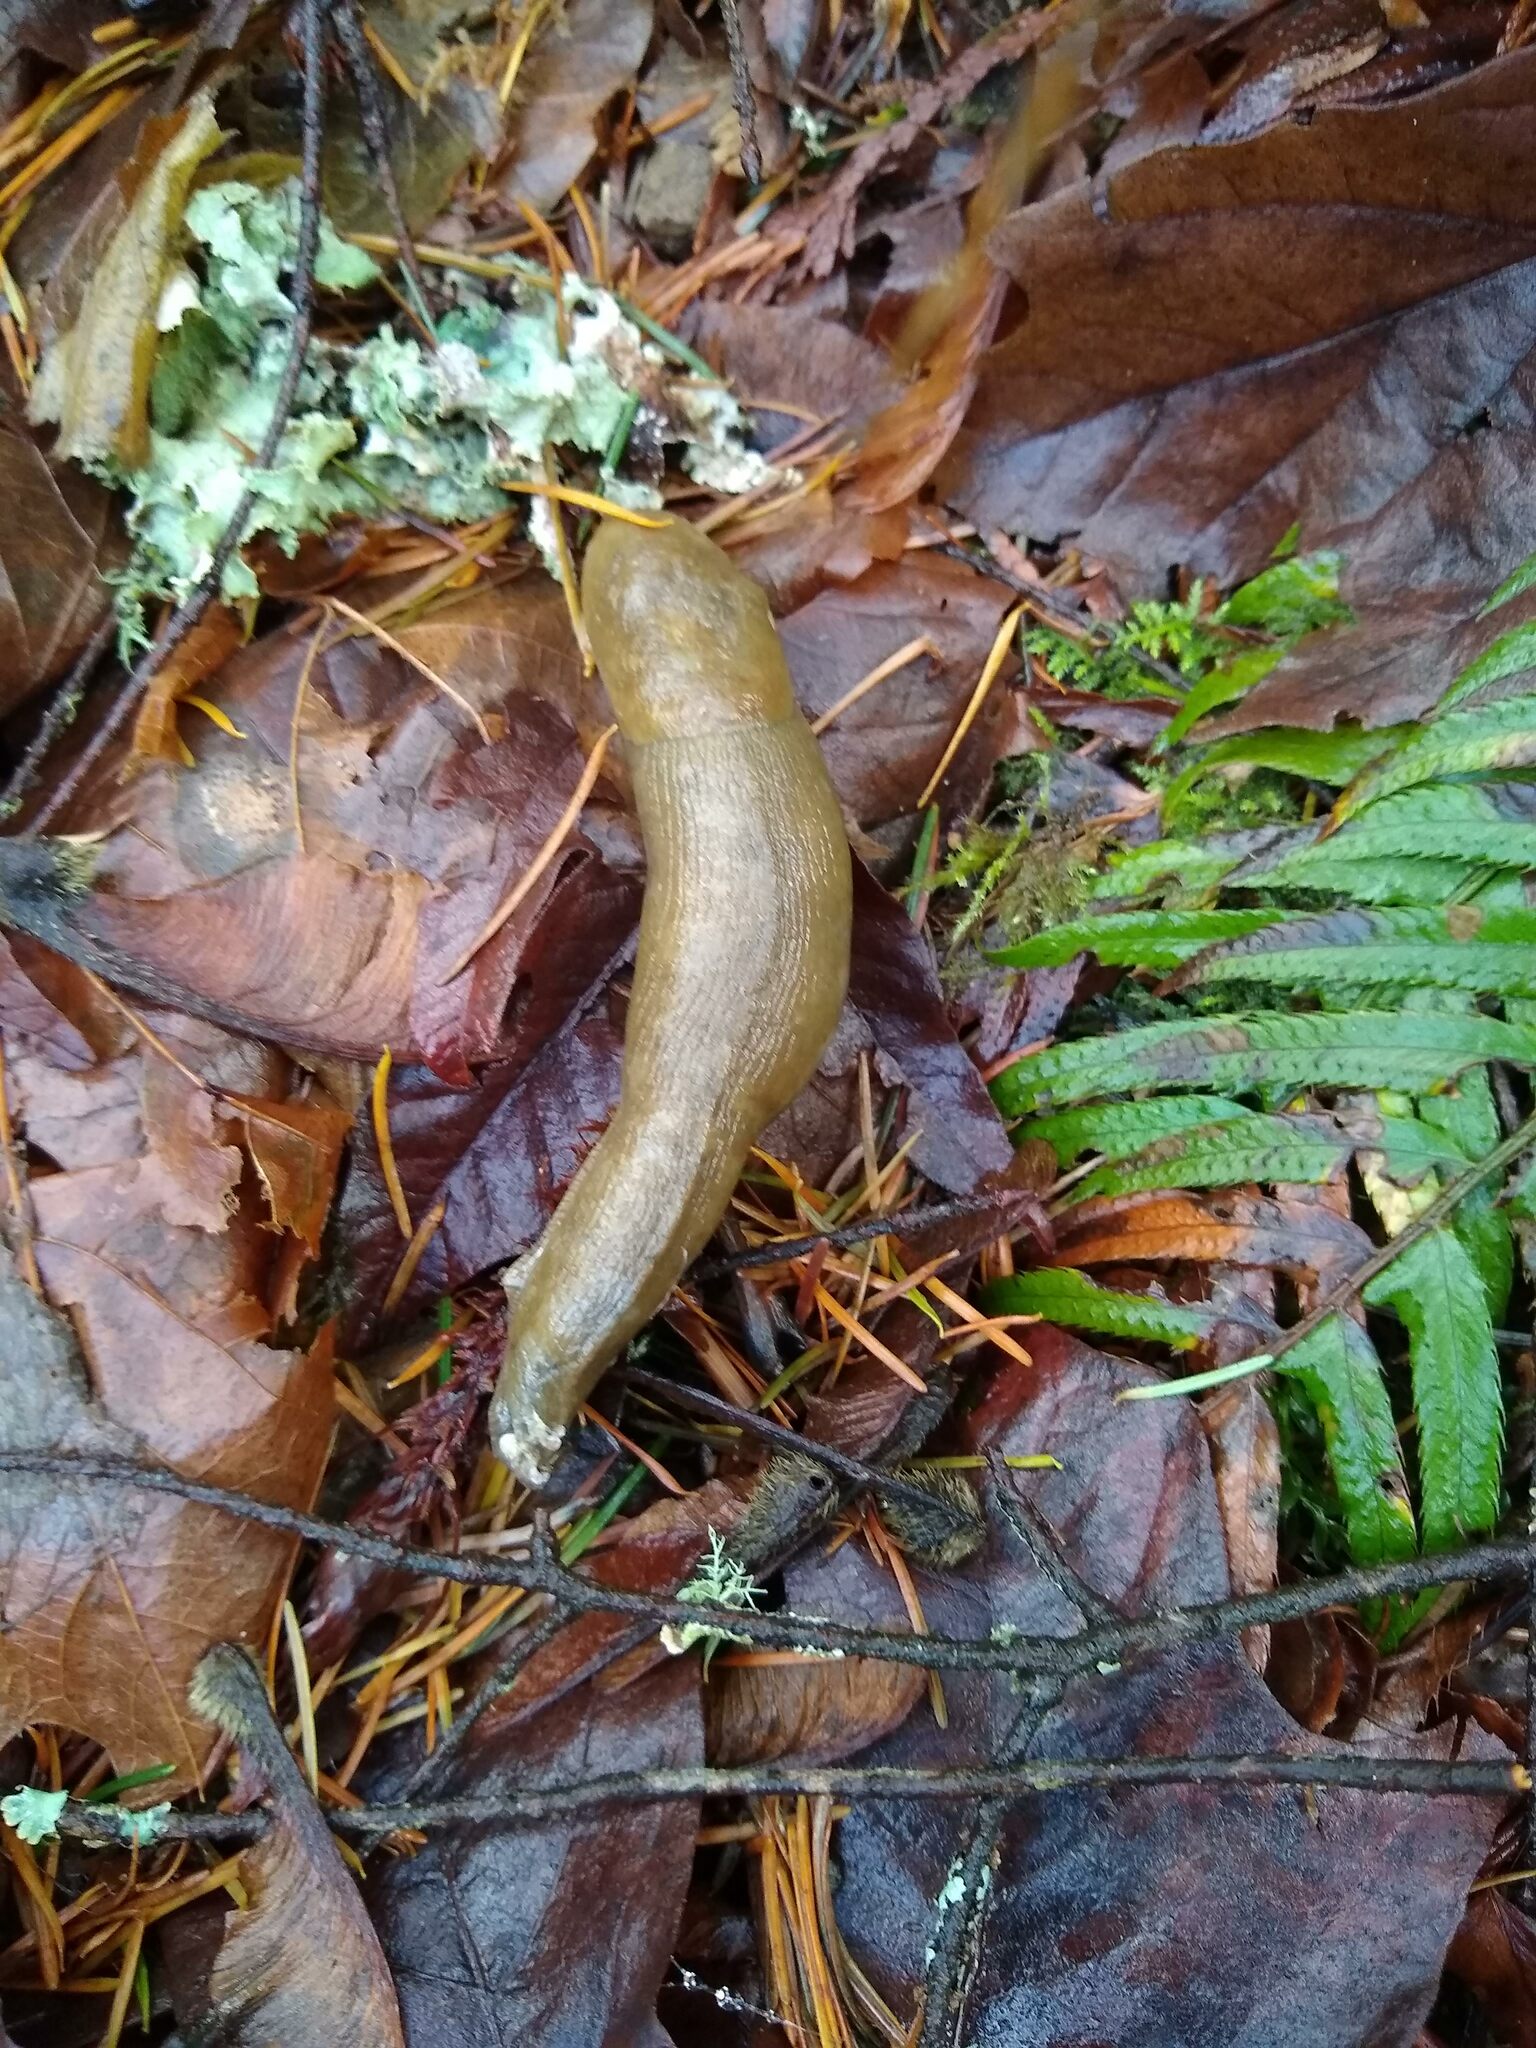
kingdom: Animalia
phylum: Mollusca
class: Gastropoda
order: Stylommatophora
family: Ariolimacidae
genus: Ariolimax
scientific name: Ariolimax columbianus
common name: Pacific banana slug
